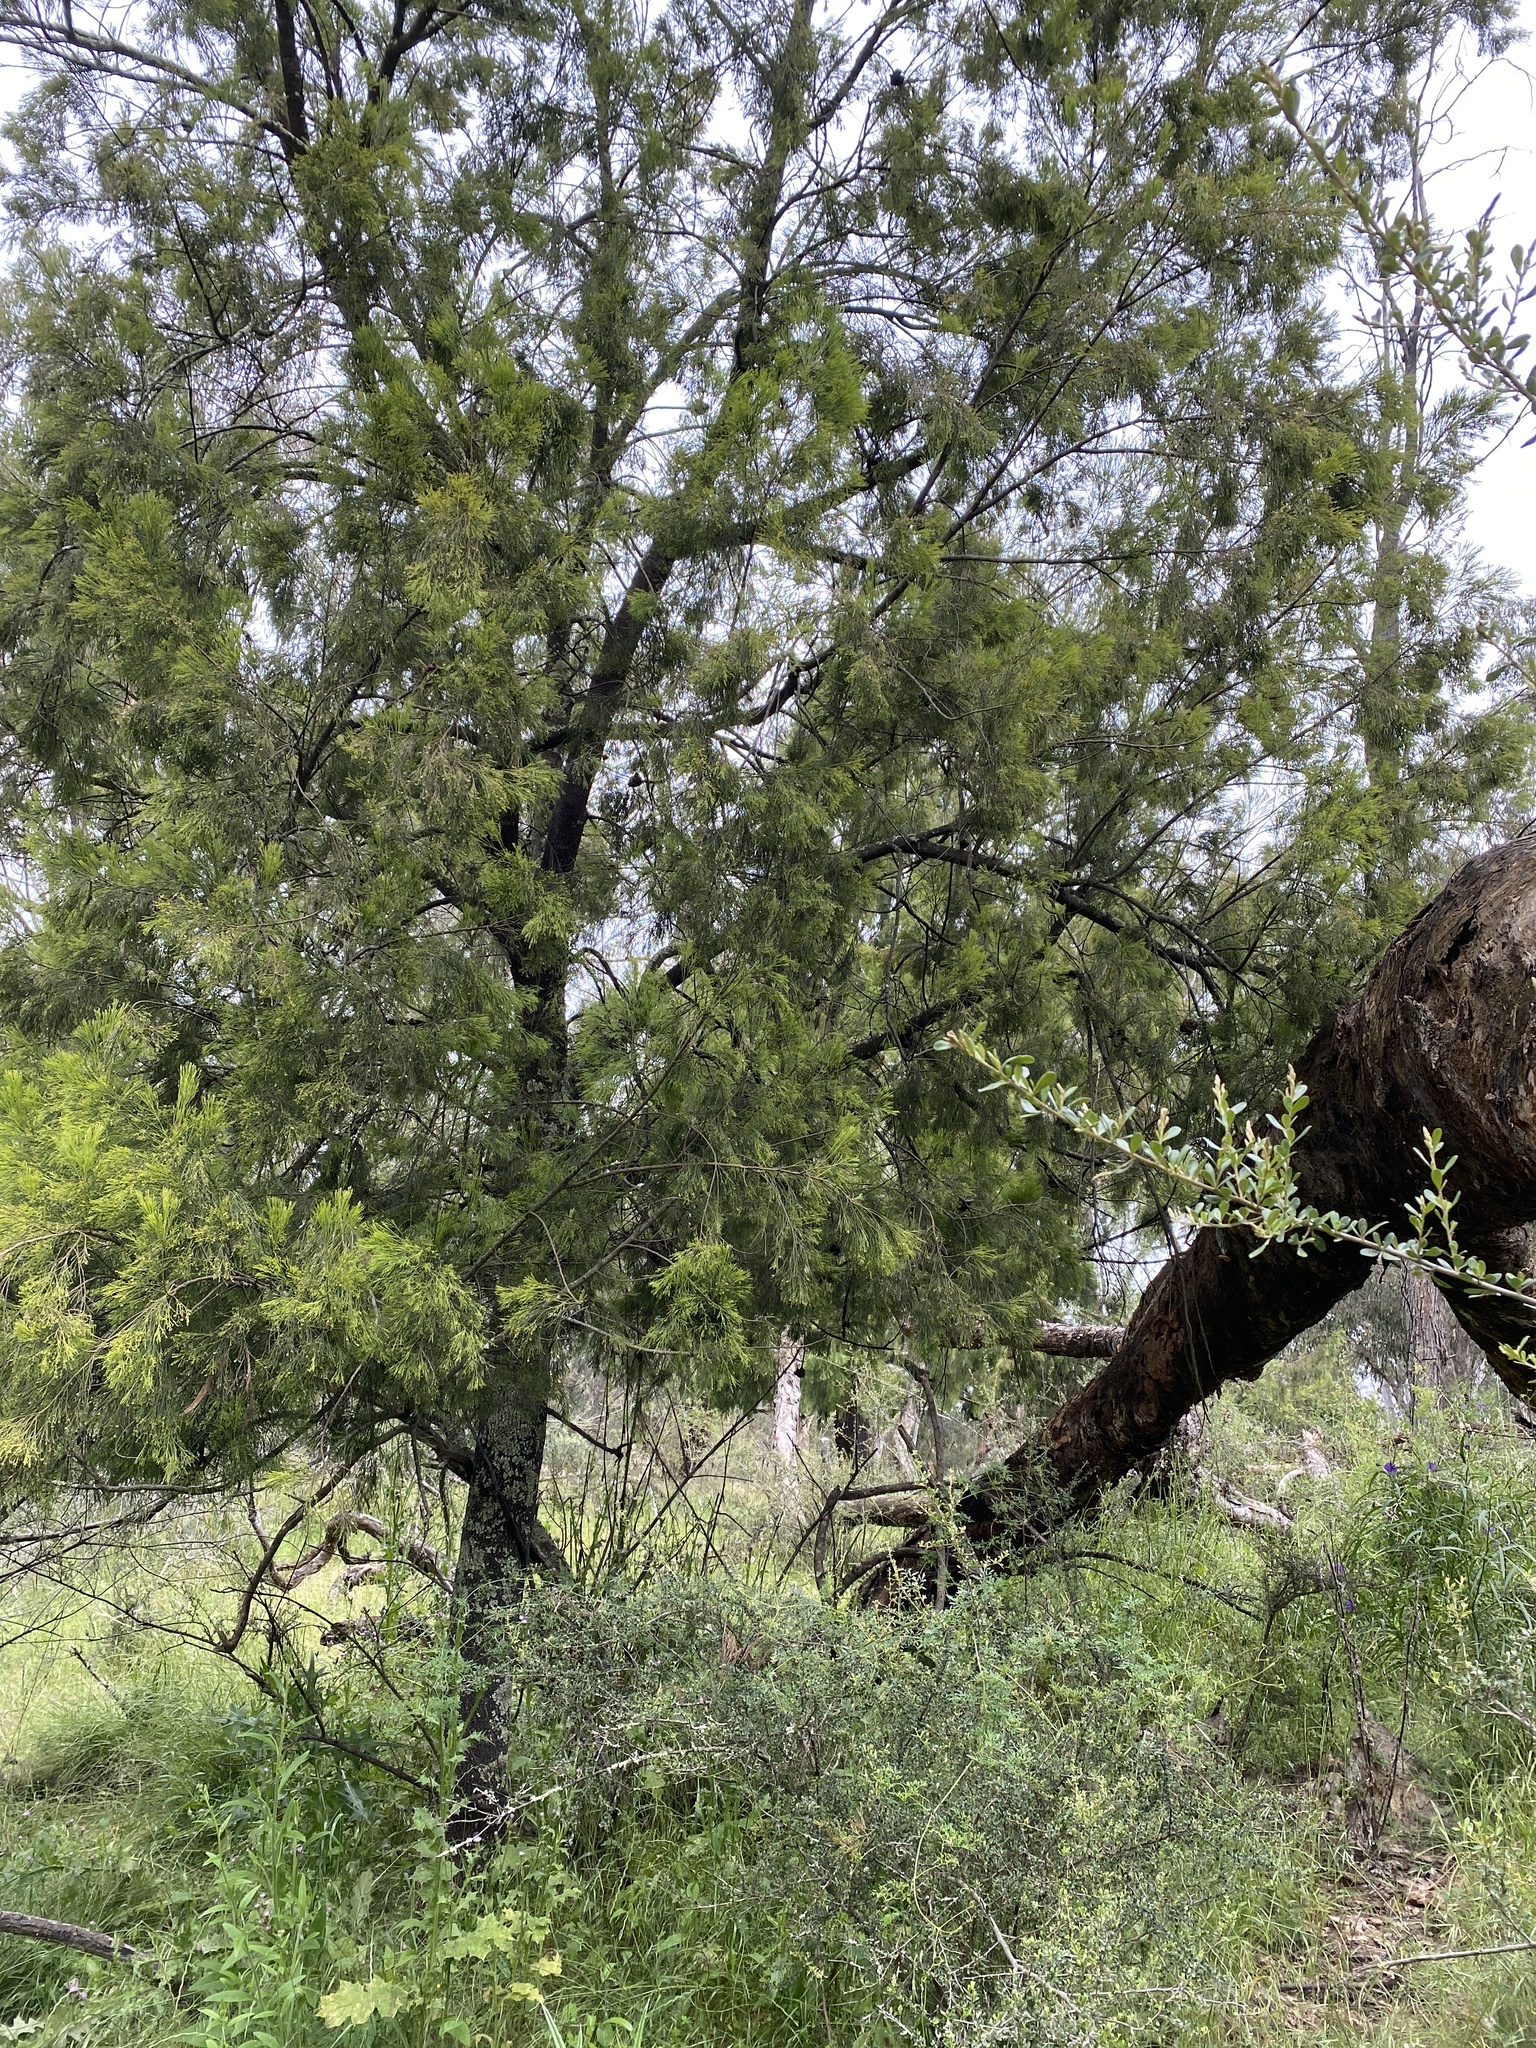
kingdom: Plantae
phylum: Tracheophyta
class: Magnoliopsida
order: Santalales
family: Santalaceae
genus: Exocarpos
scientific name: Exocarpos cupressiformis
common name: Cherry ballart
